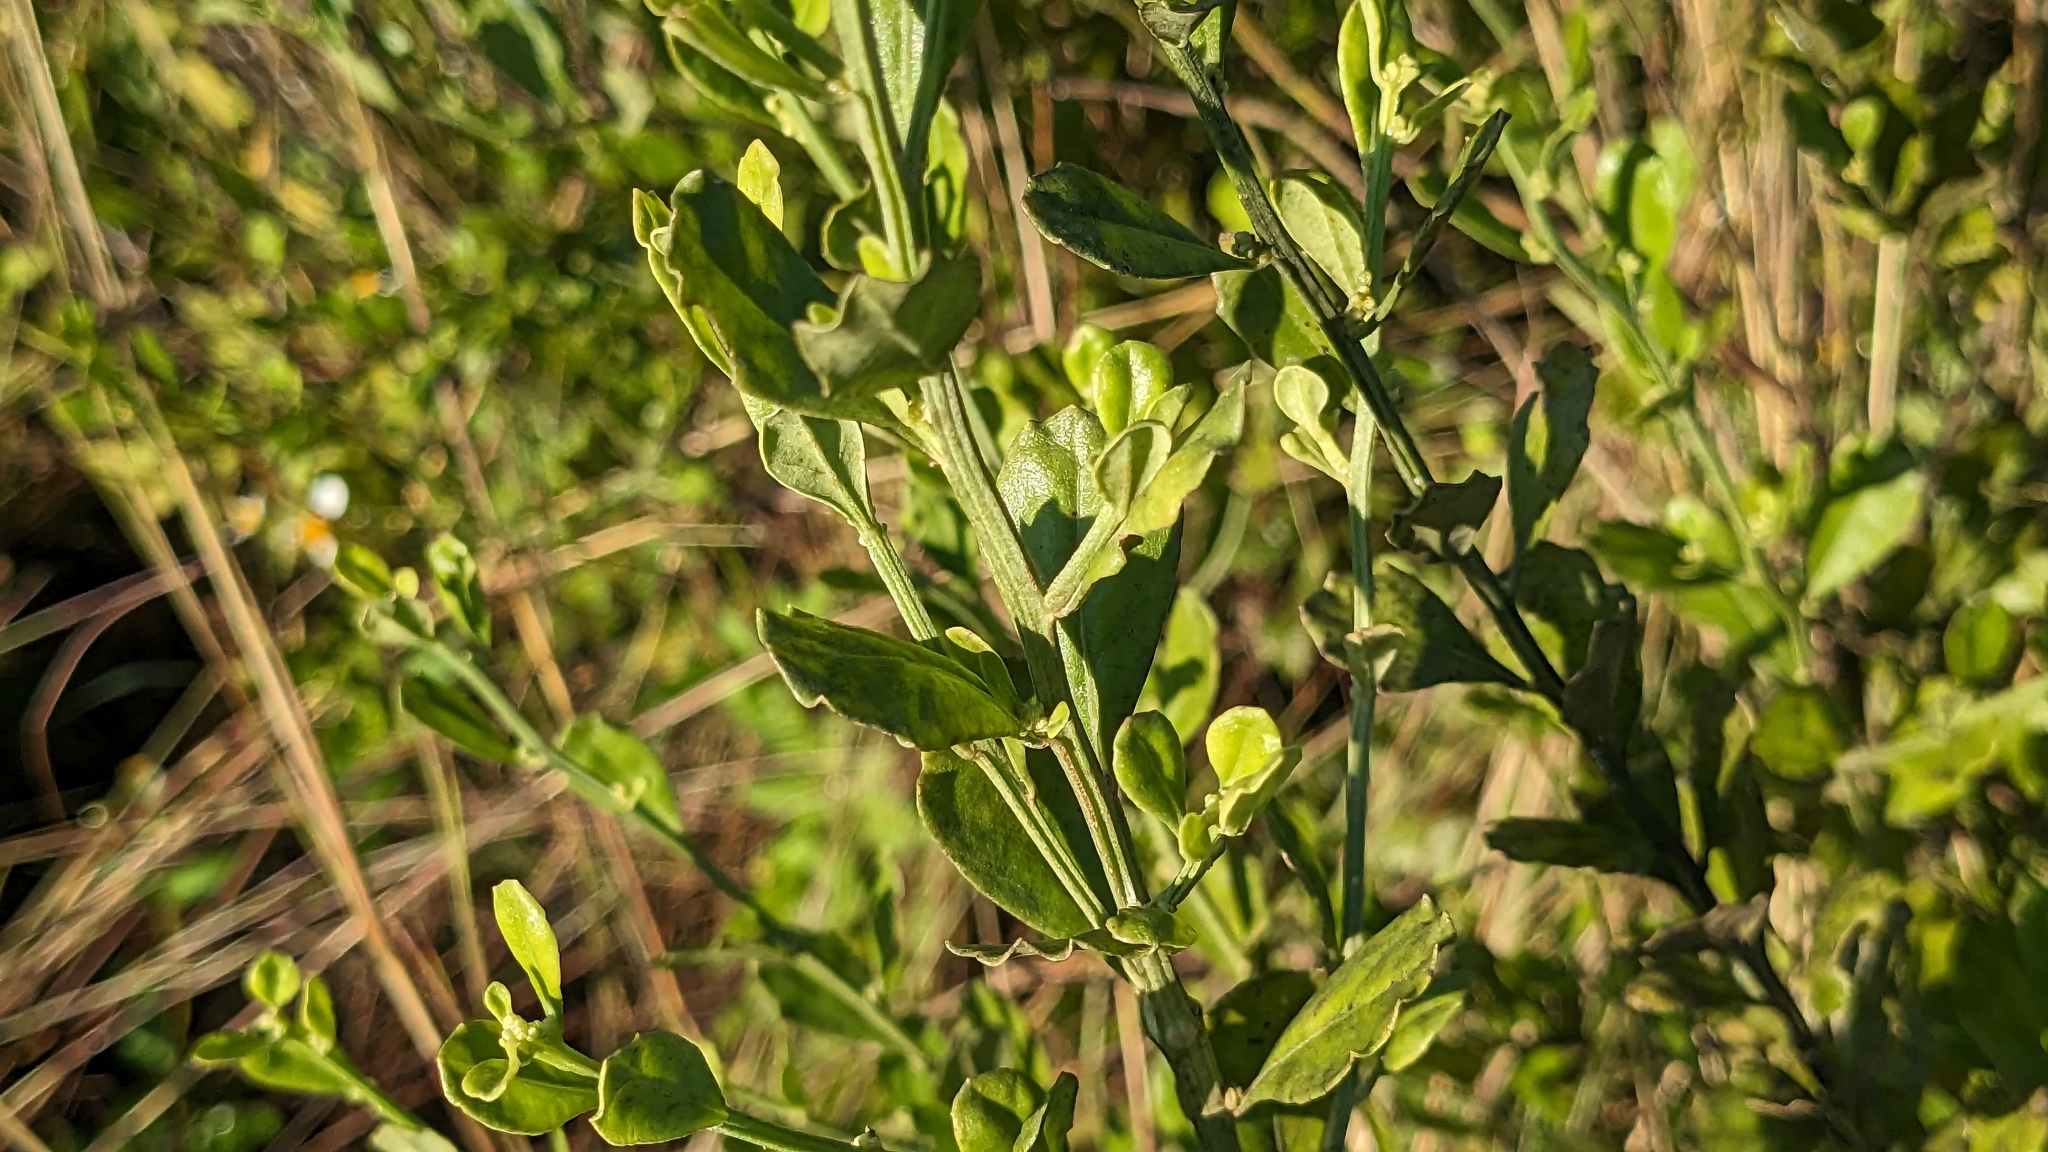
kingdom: Plantae
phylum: Tracheophyta
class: Magnoliopsida
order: Asterales
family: Asteraceae
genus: Baccharis
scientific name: Baccharis glomeruliflora
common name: Silverling groundsel bush
